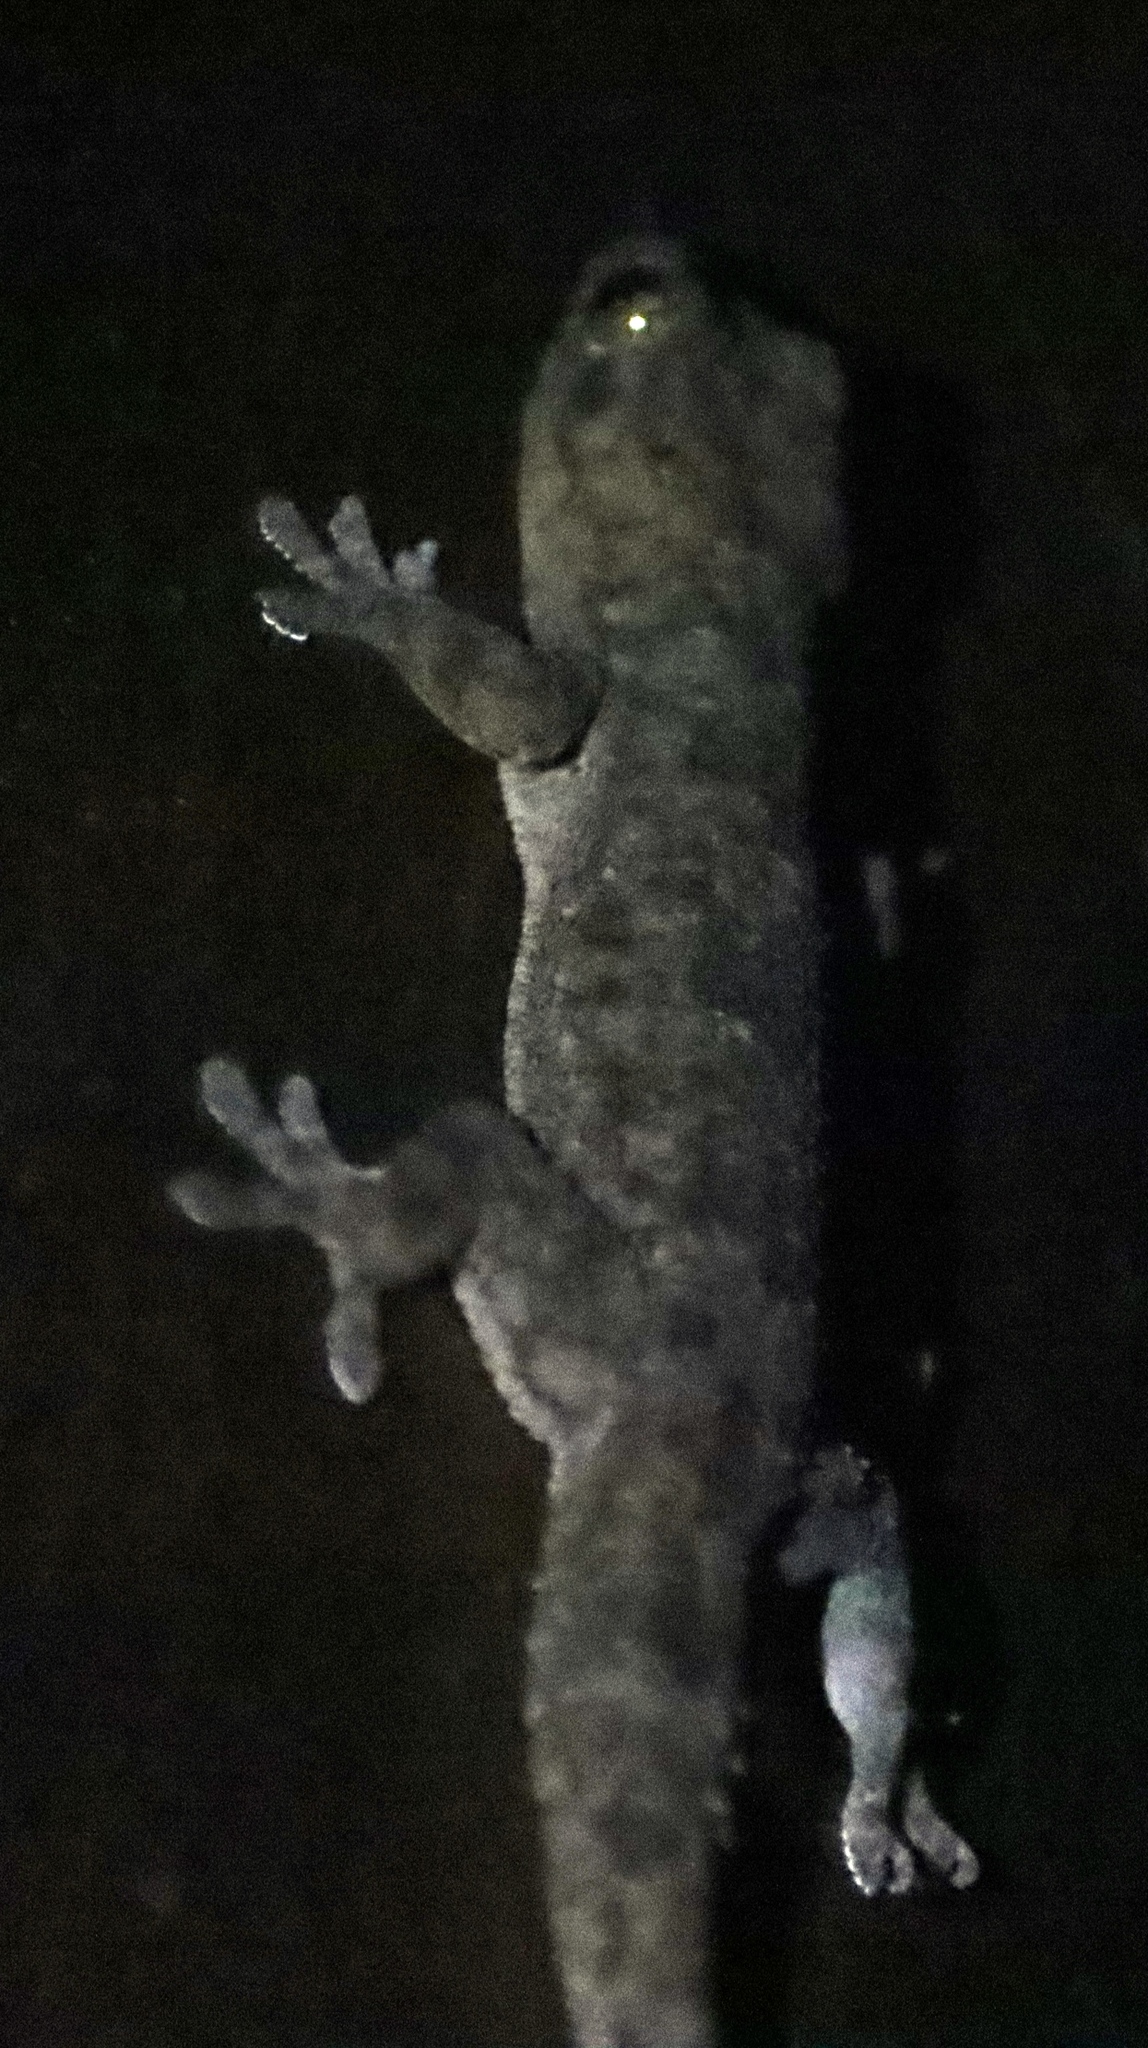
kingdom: Animalia
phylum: Chordata
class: Squamata
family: Gekkonidae
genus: Hemidactylus
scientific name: Hemidactylus mabouia
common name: House gecko
